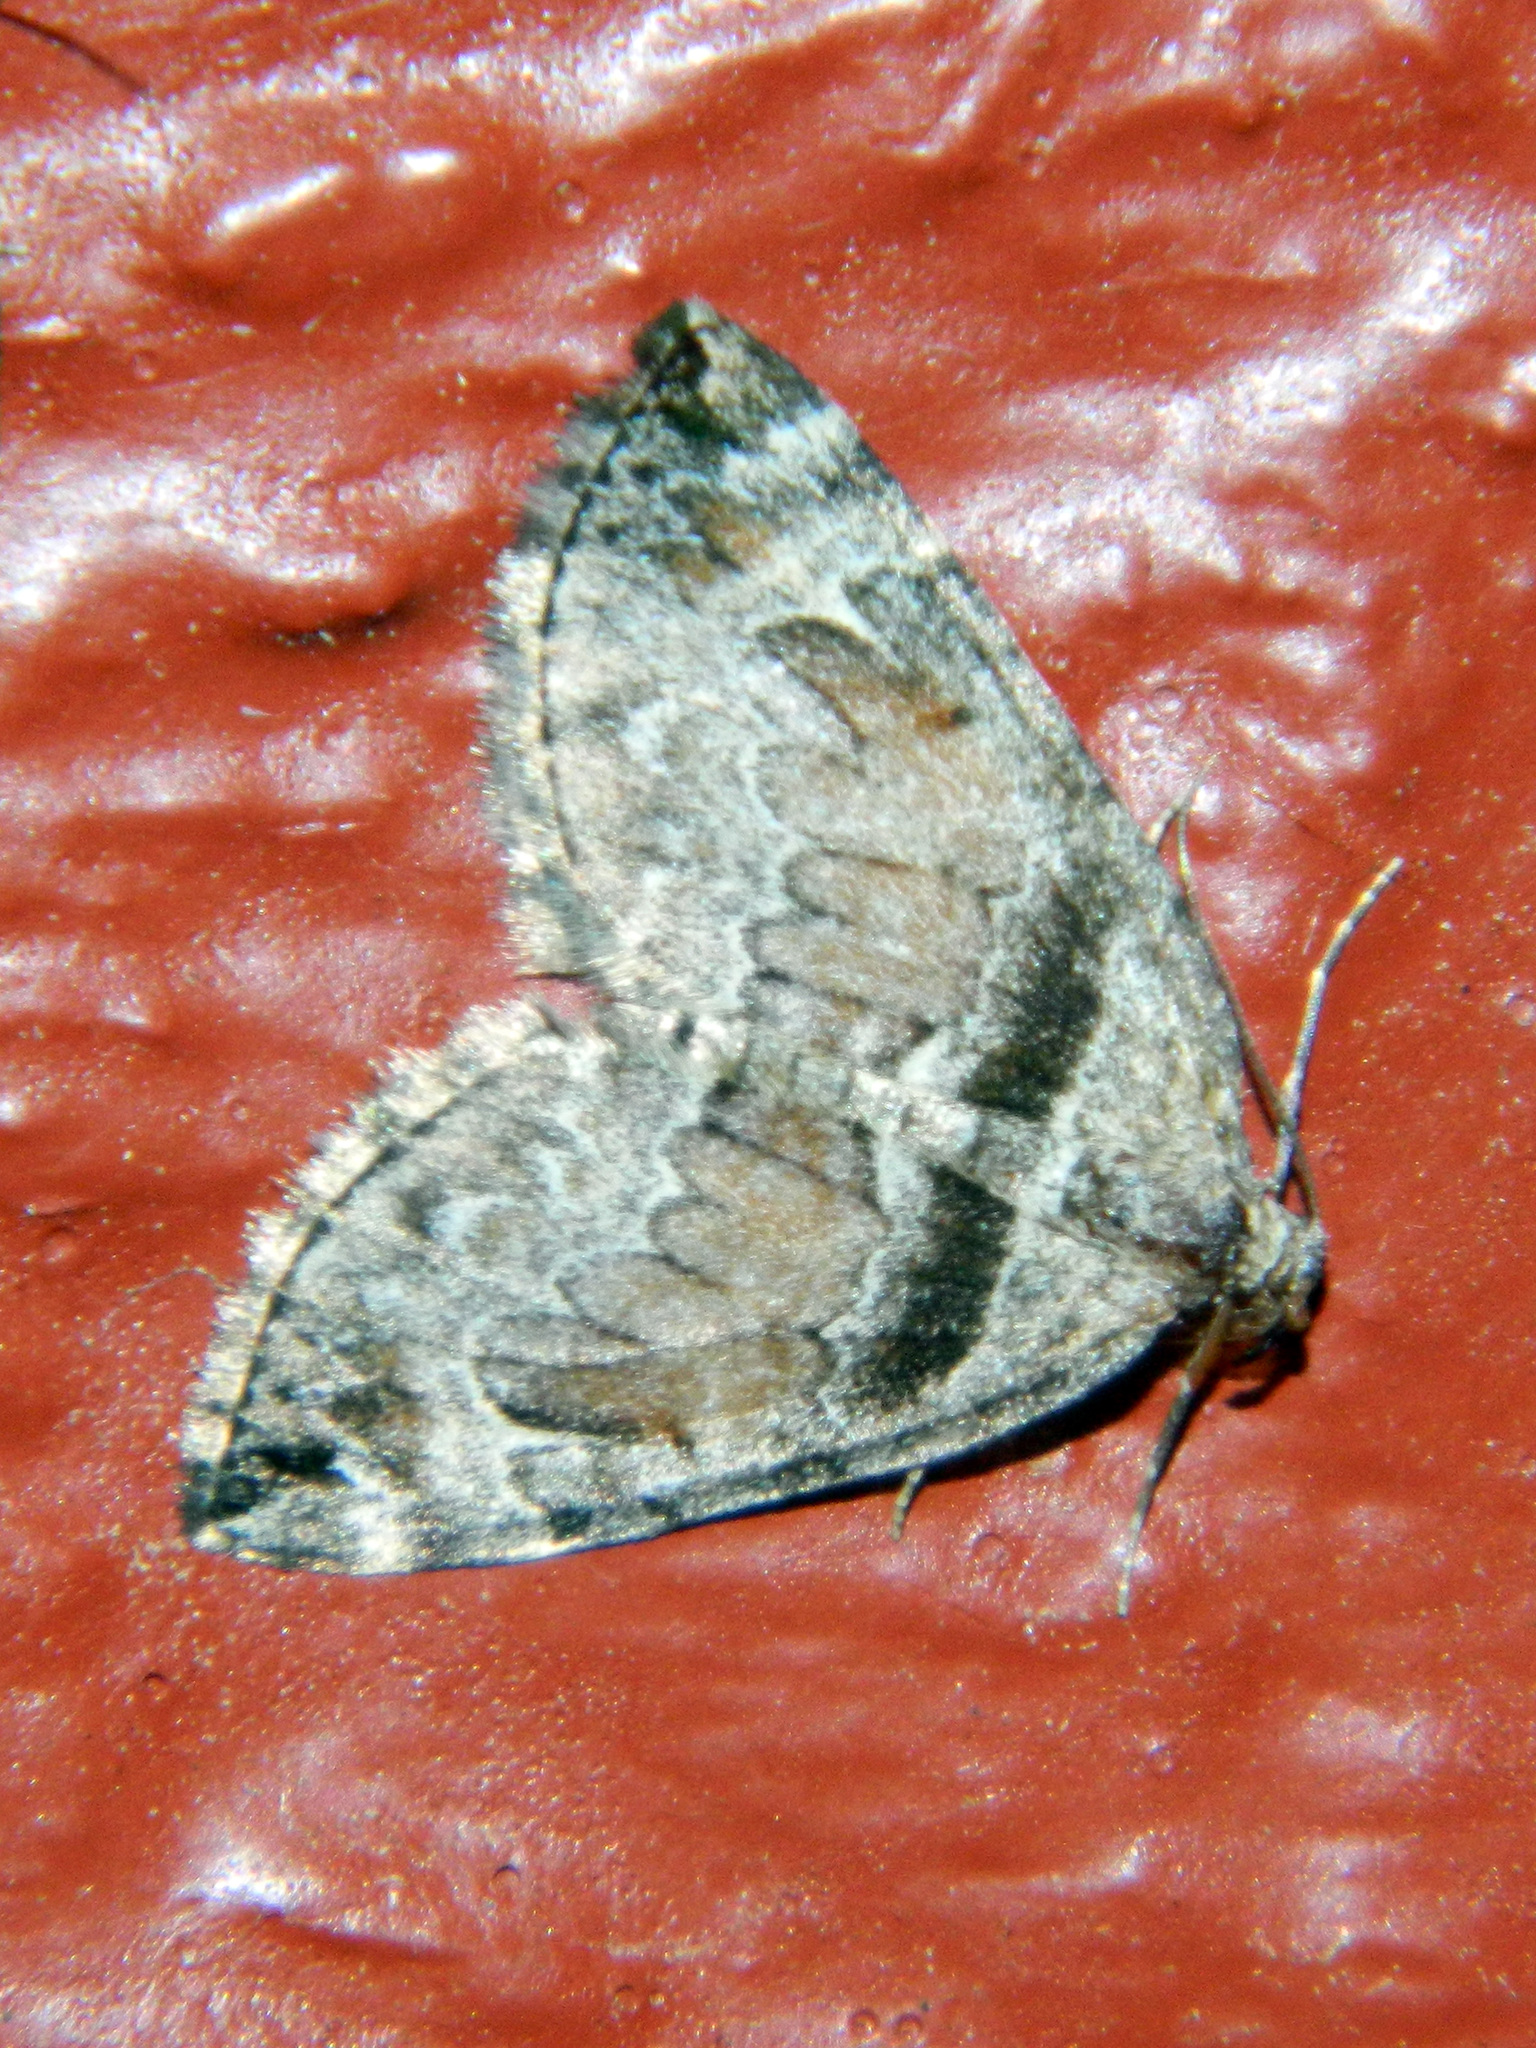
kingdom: Animalia
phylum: Arthropoda
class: Insecta
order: Lepidoptera
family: Geometridae
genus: Dysstroma
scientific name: Dysstroma hersiliata
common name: Orange-barred carpet
